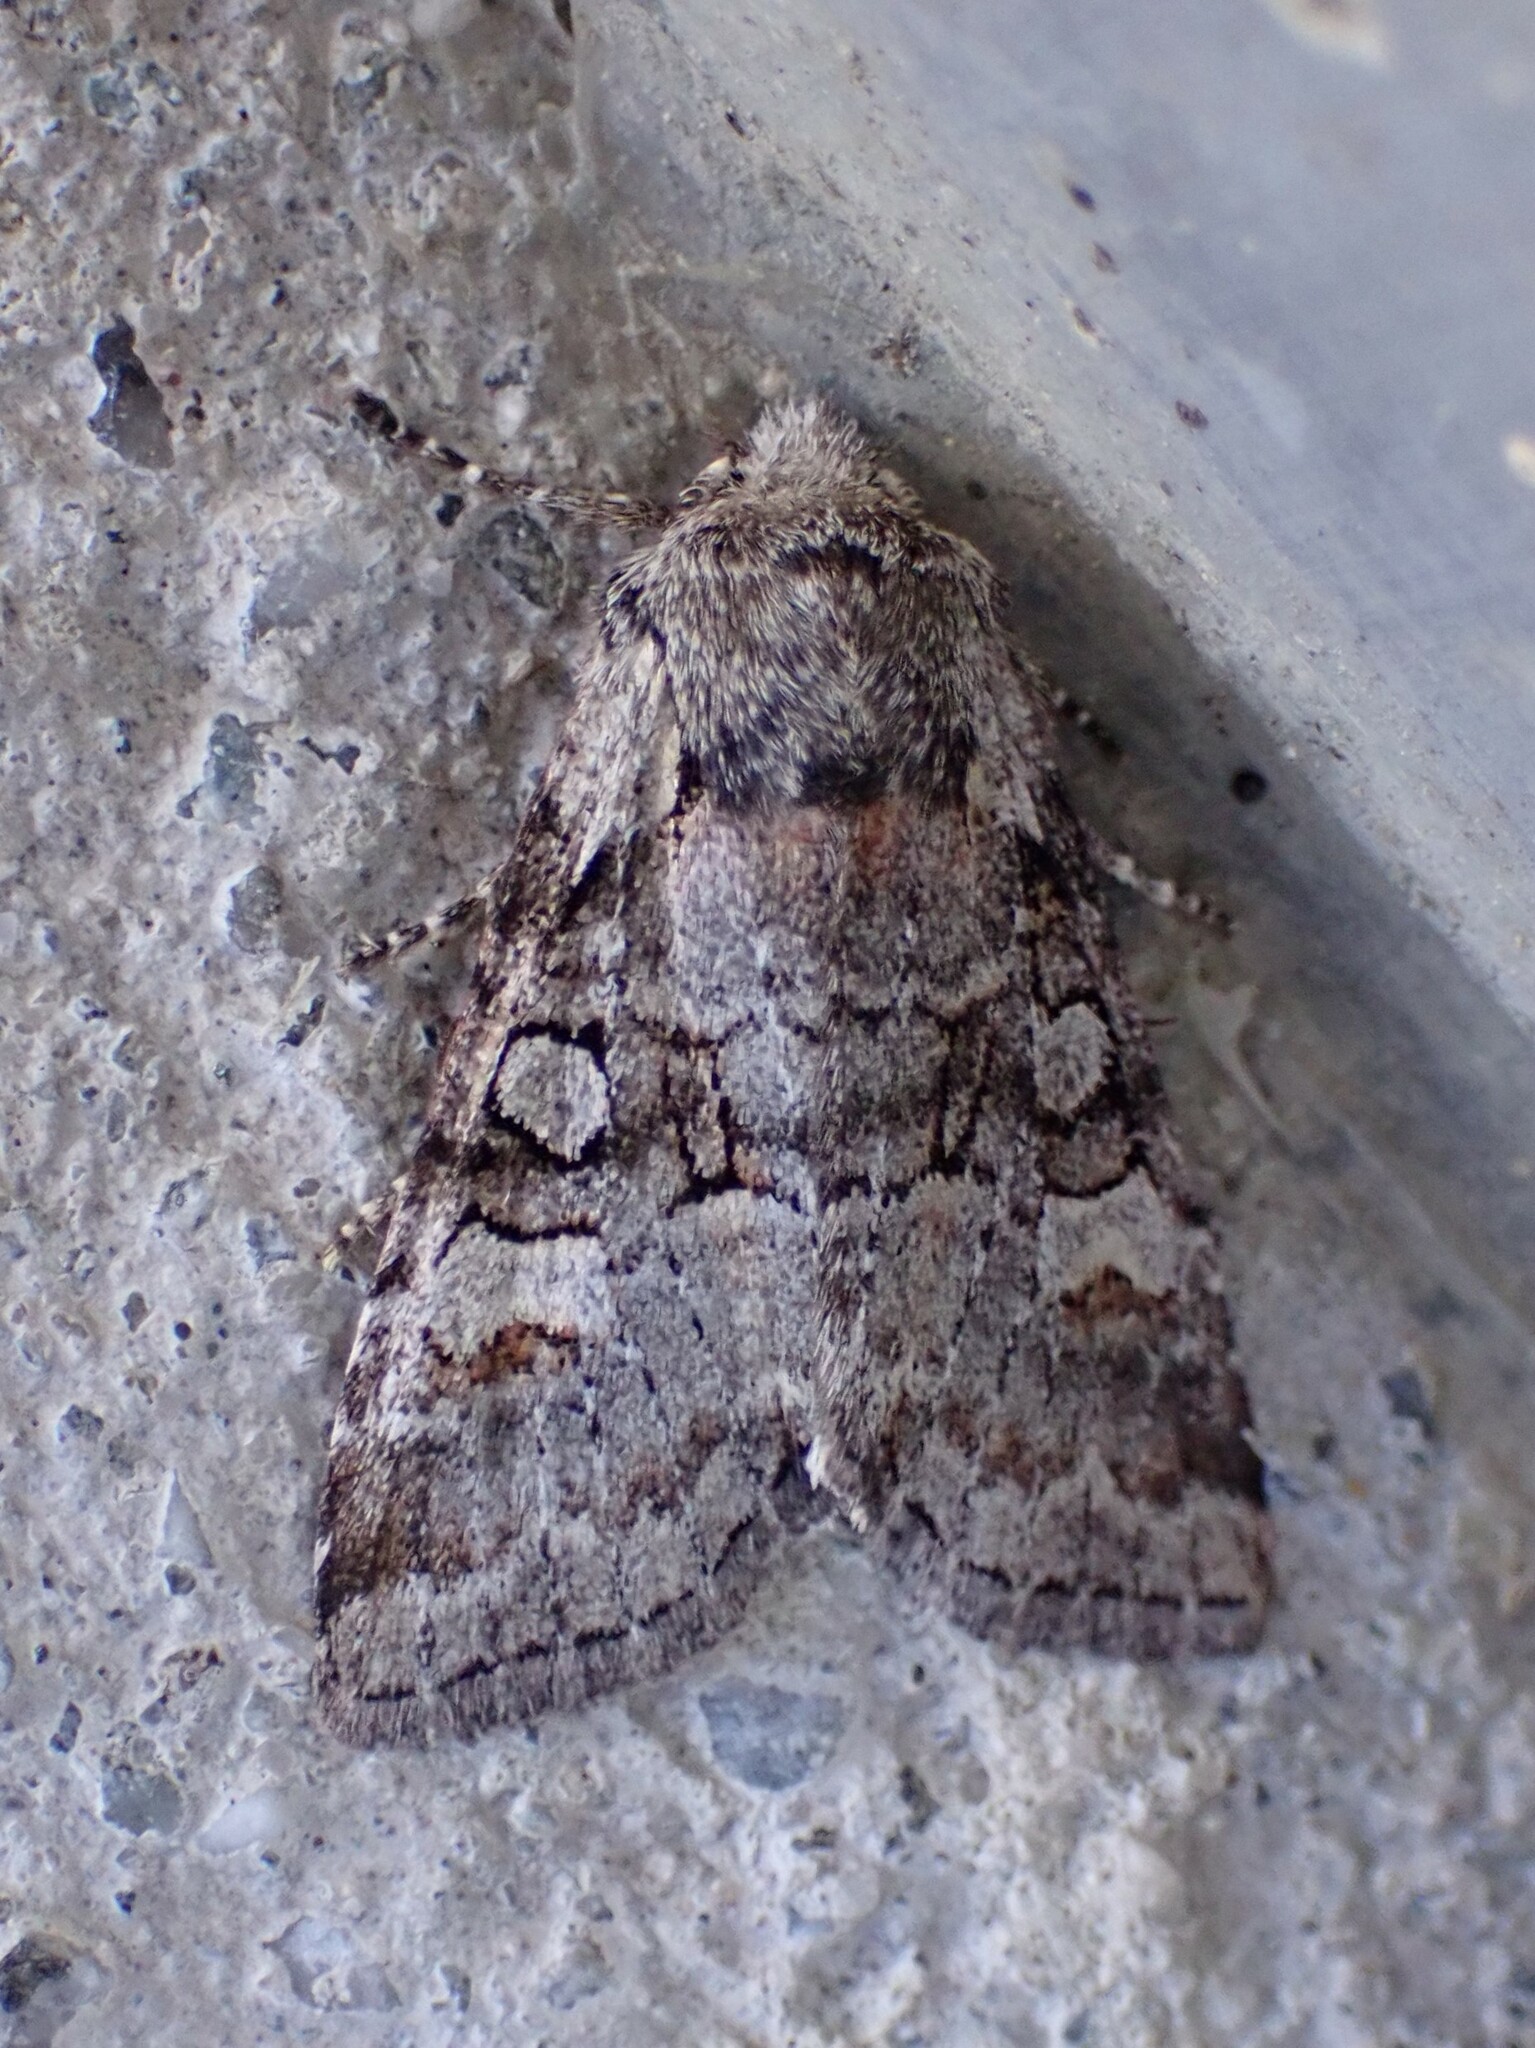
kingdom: Animalia
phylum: Arthropoda
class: Insecta
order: Lepidoptera
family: Noctuidae
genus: Brachylomia
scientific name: Brachylomia viminalis
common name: Minor shoulder-knot
